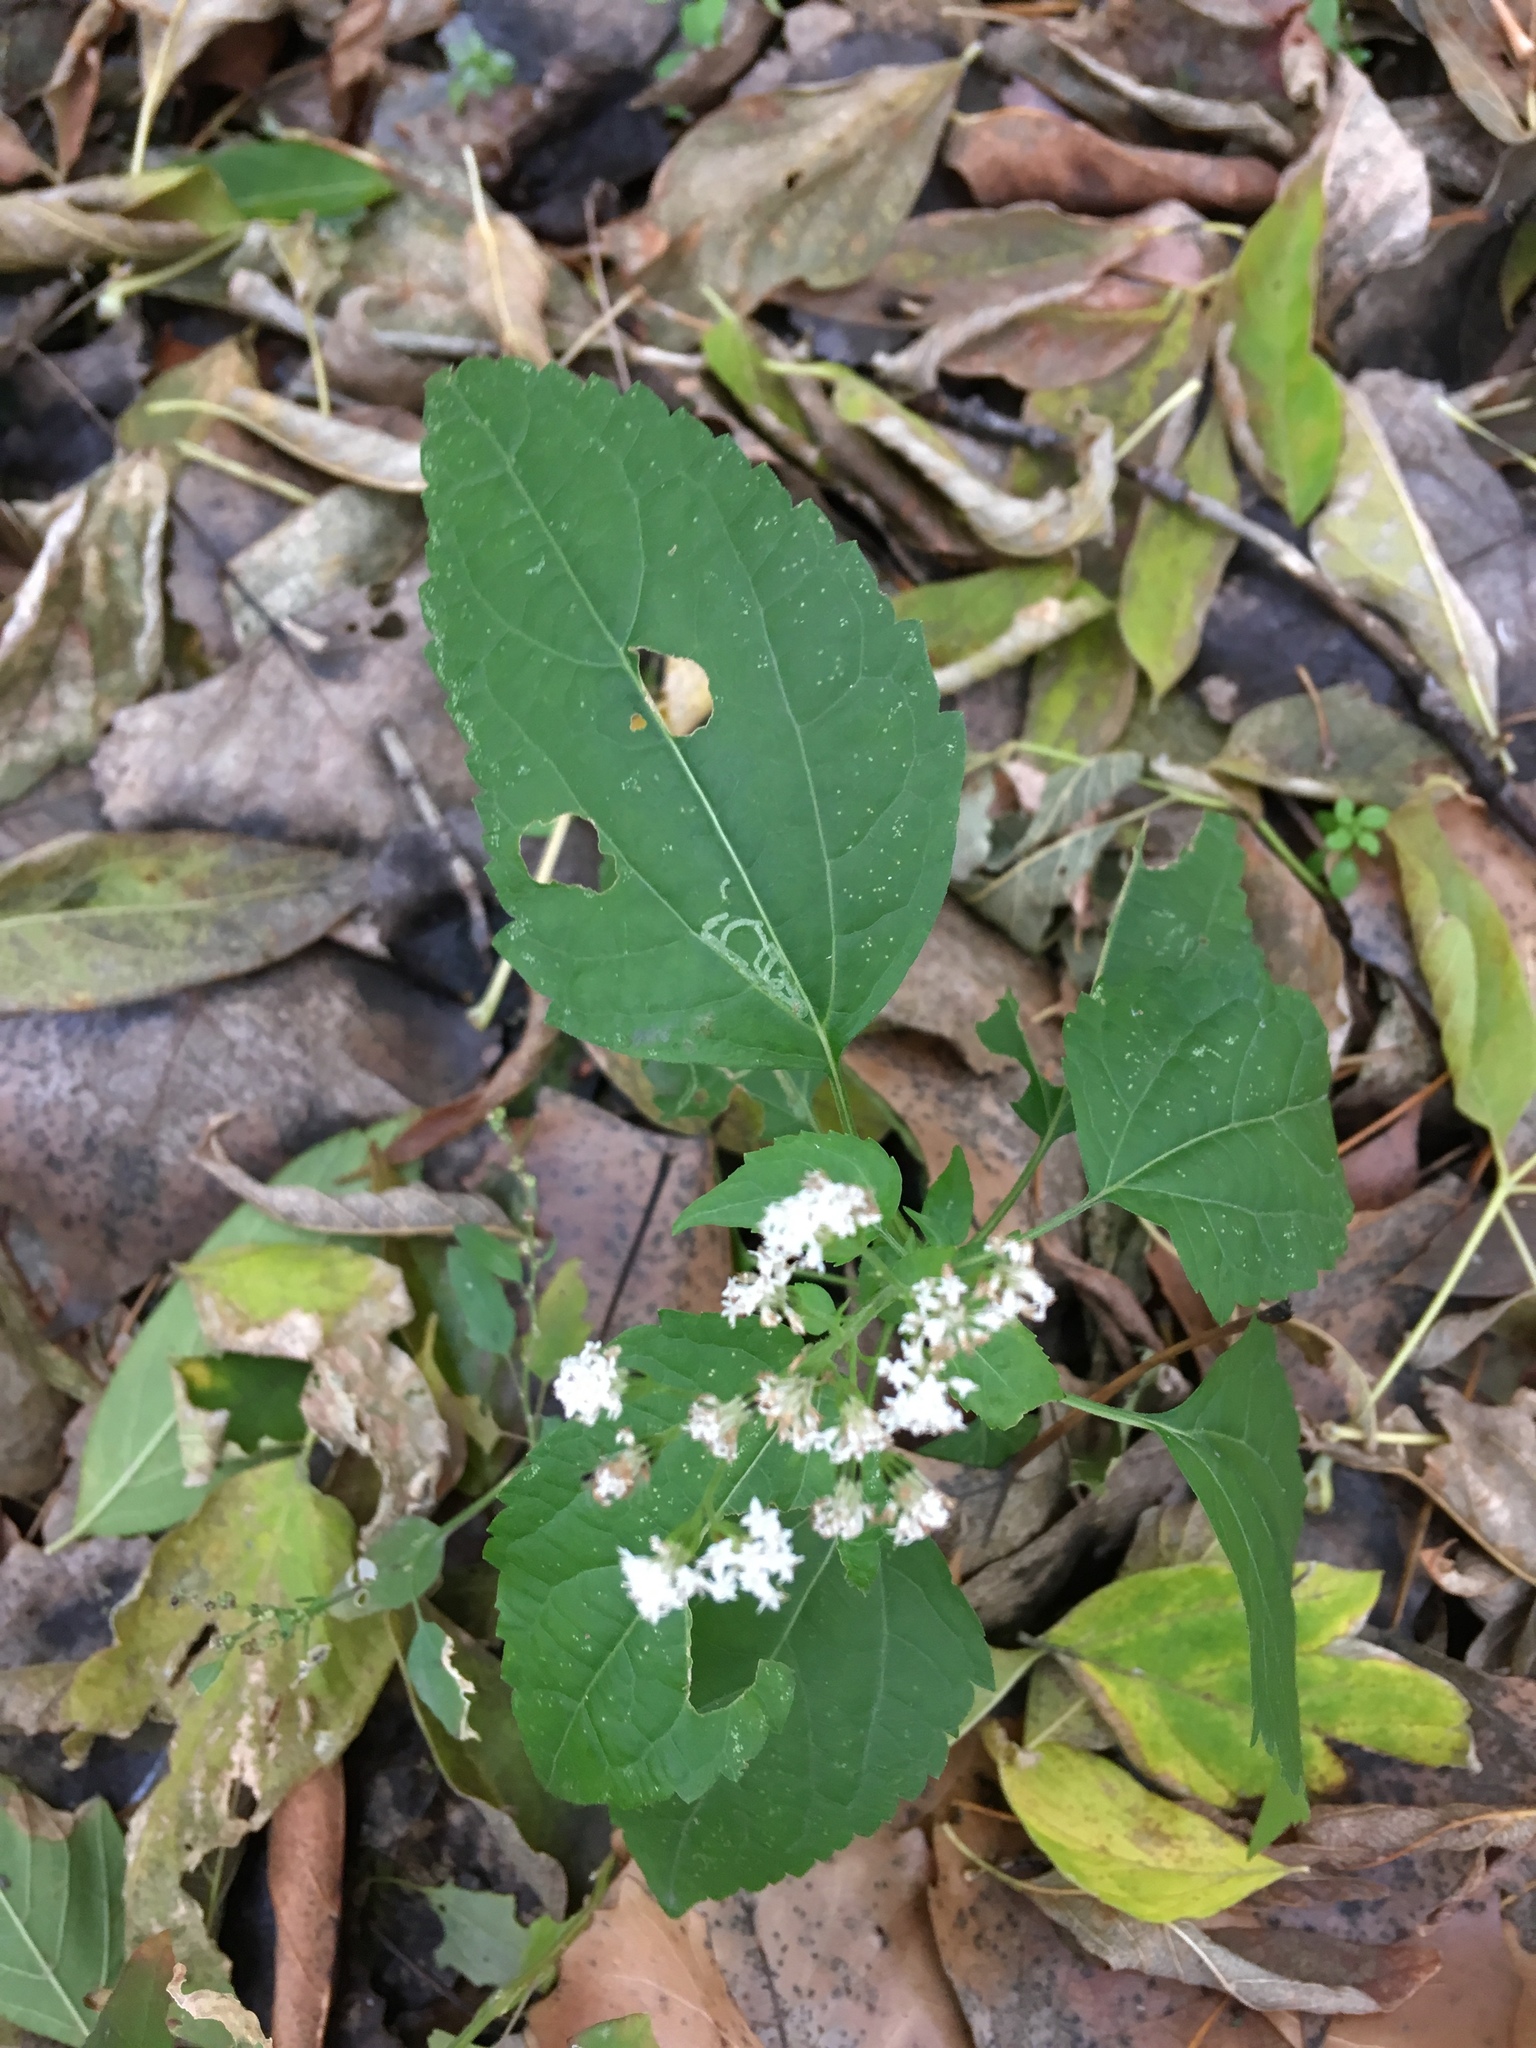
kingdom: Plantae
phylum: Tracheophyta
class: Magnoliopsida
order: Asterales
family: Asteraceae
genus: Ageratina
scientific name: Ageratina altissima
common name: White snakeroot
